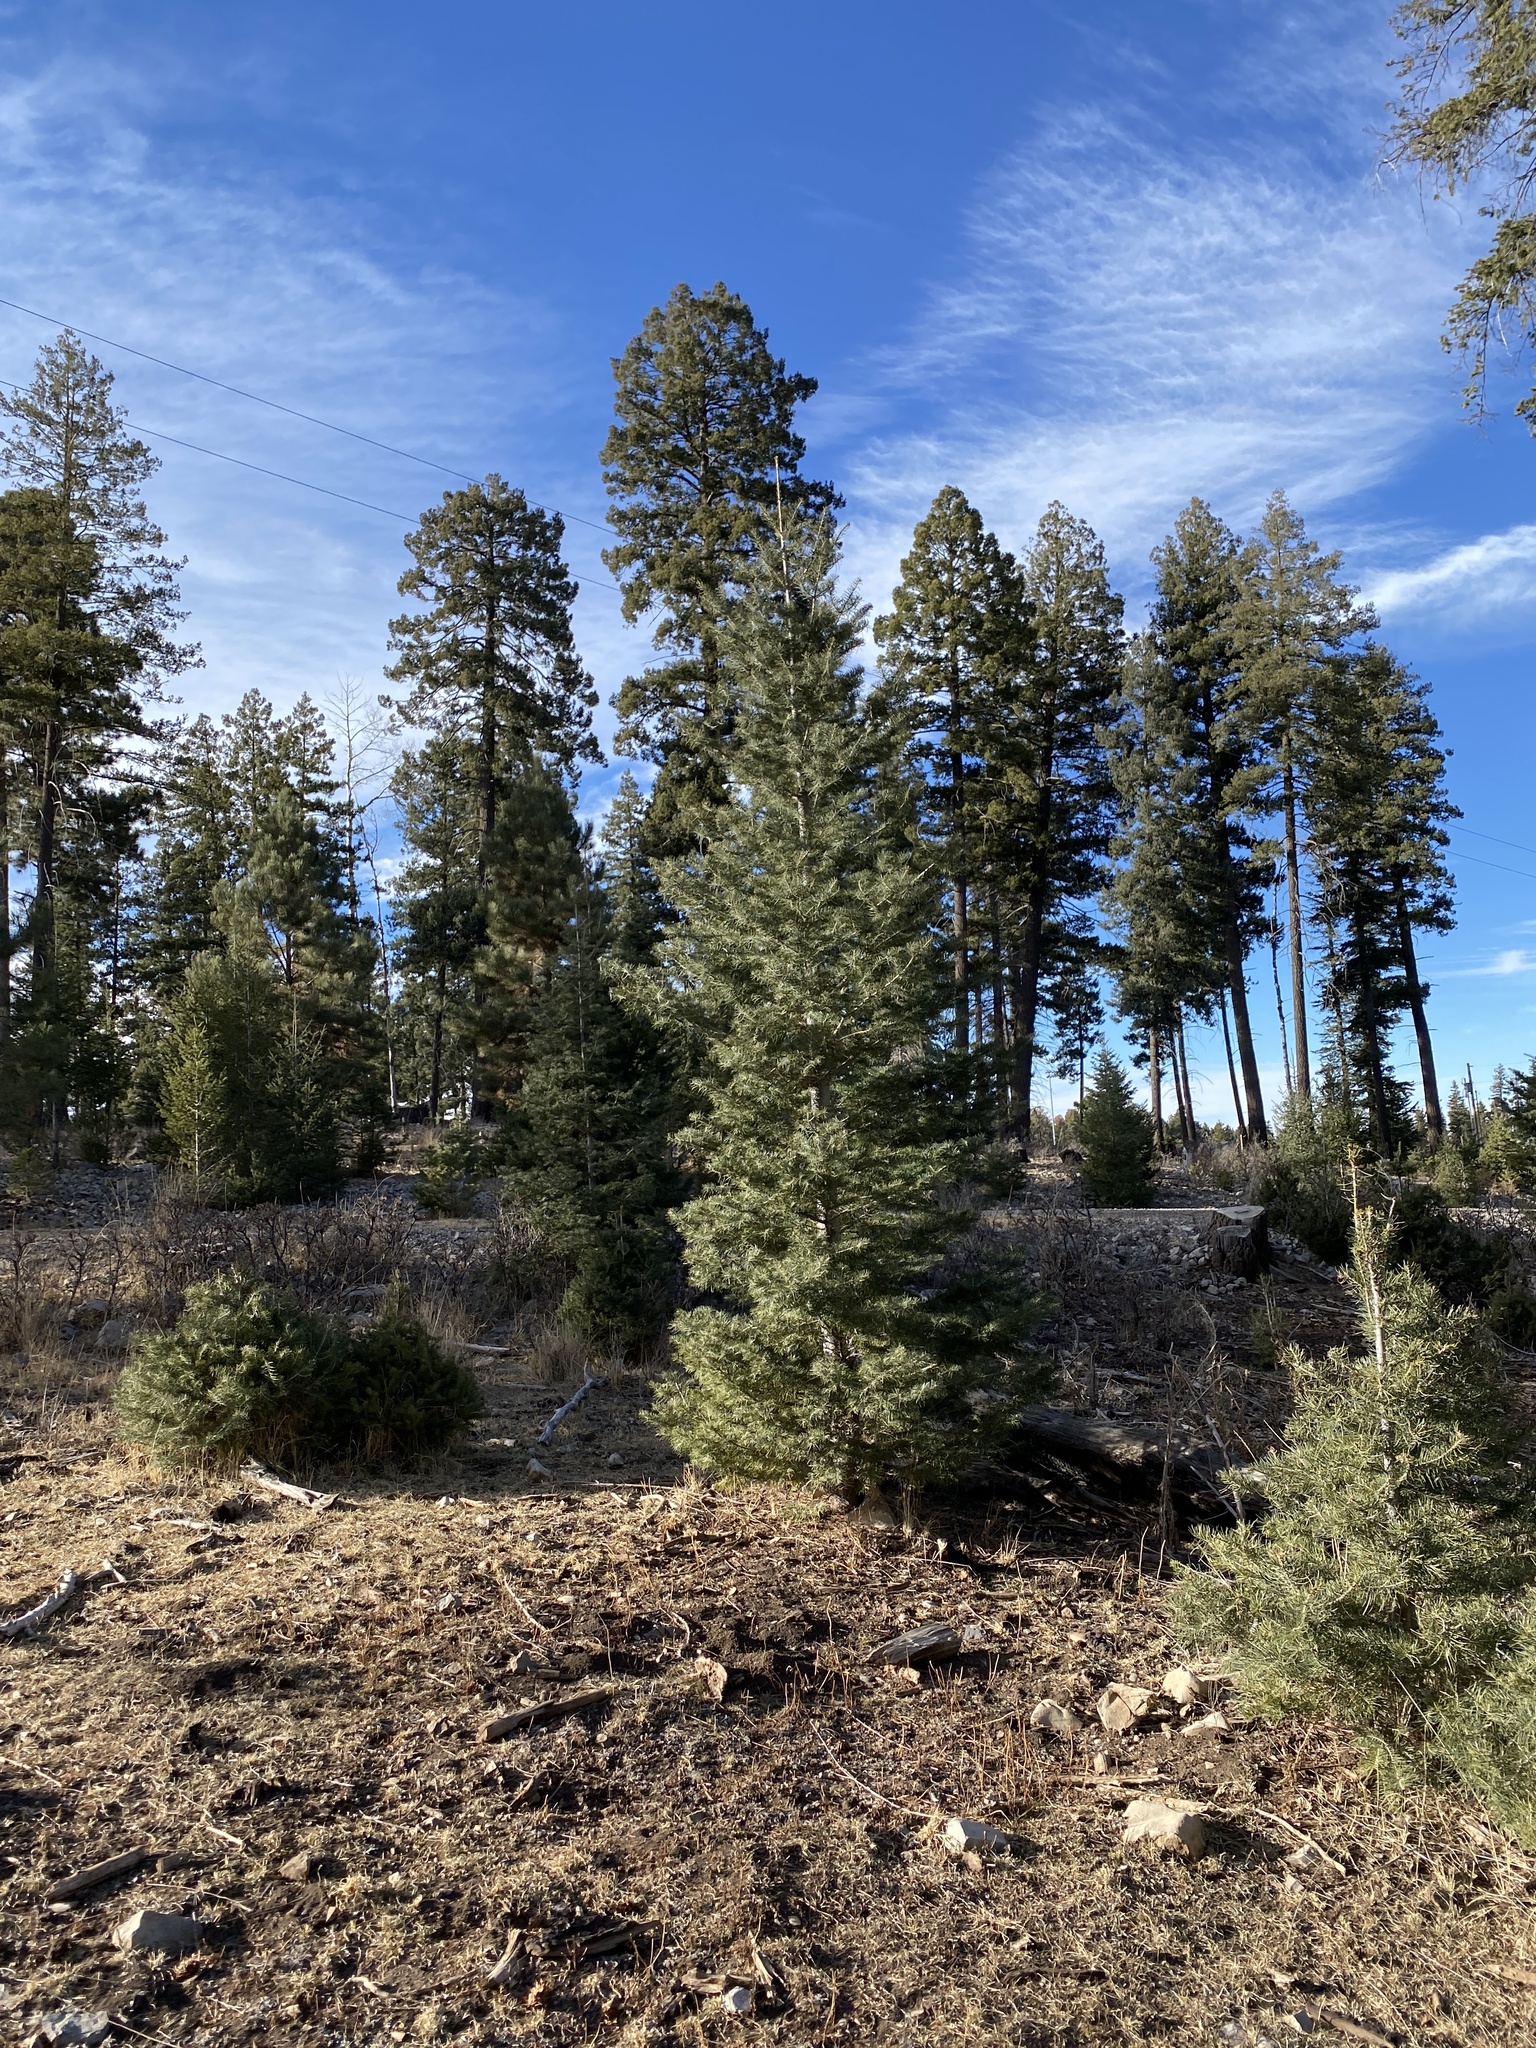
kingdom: Plantae
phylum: Tracheophyta
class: Pinopsida
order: Pinales
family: Pinaceae
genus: Abies
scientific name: Abies concolor
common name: Colorado fir
